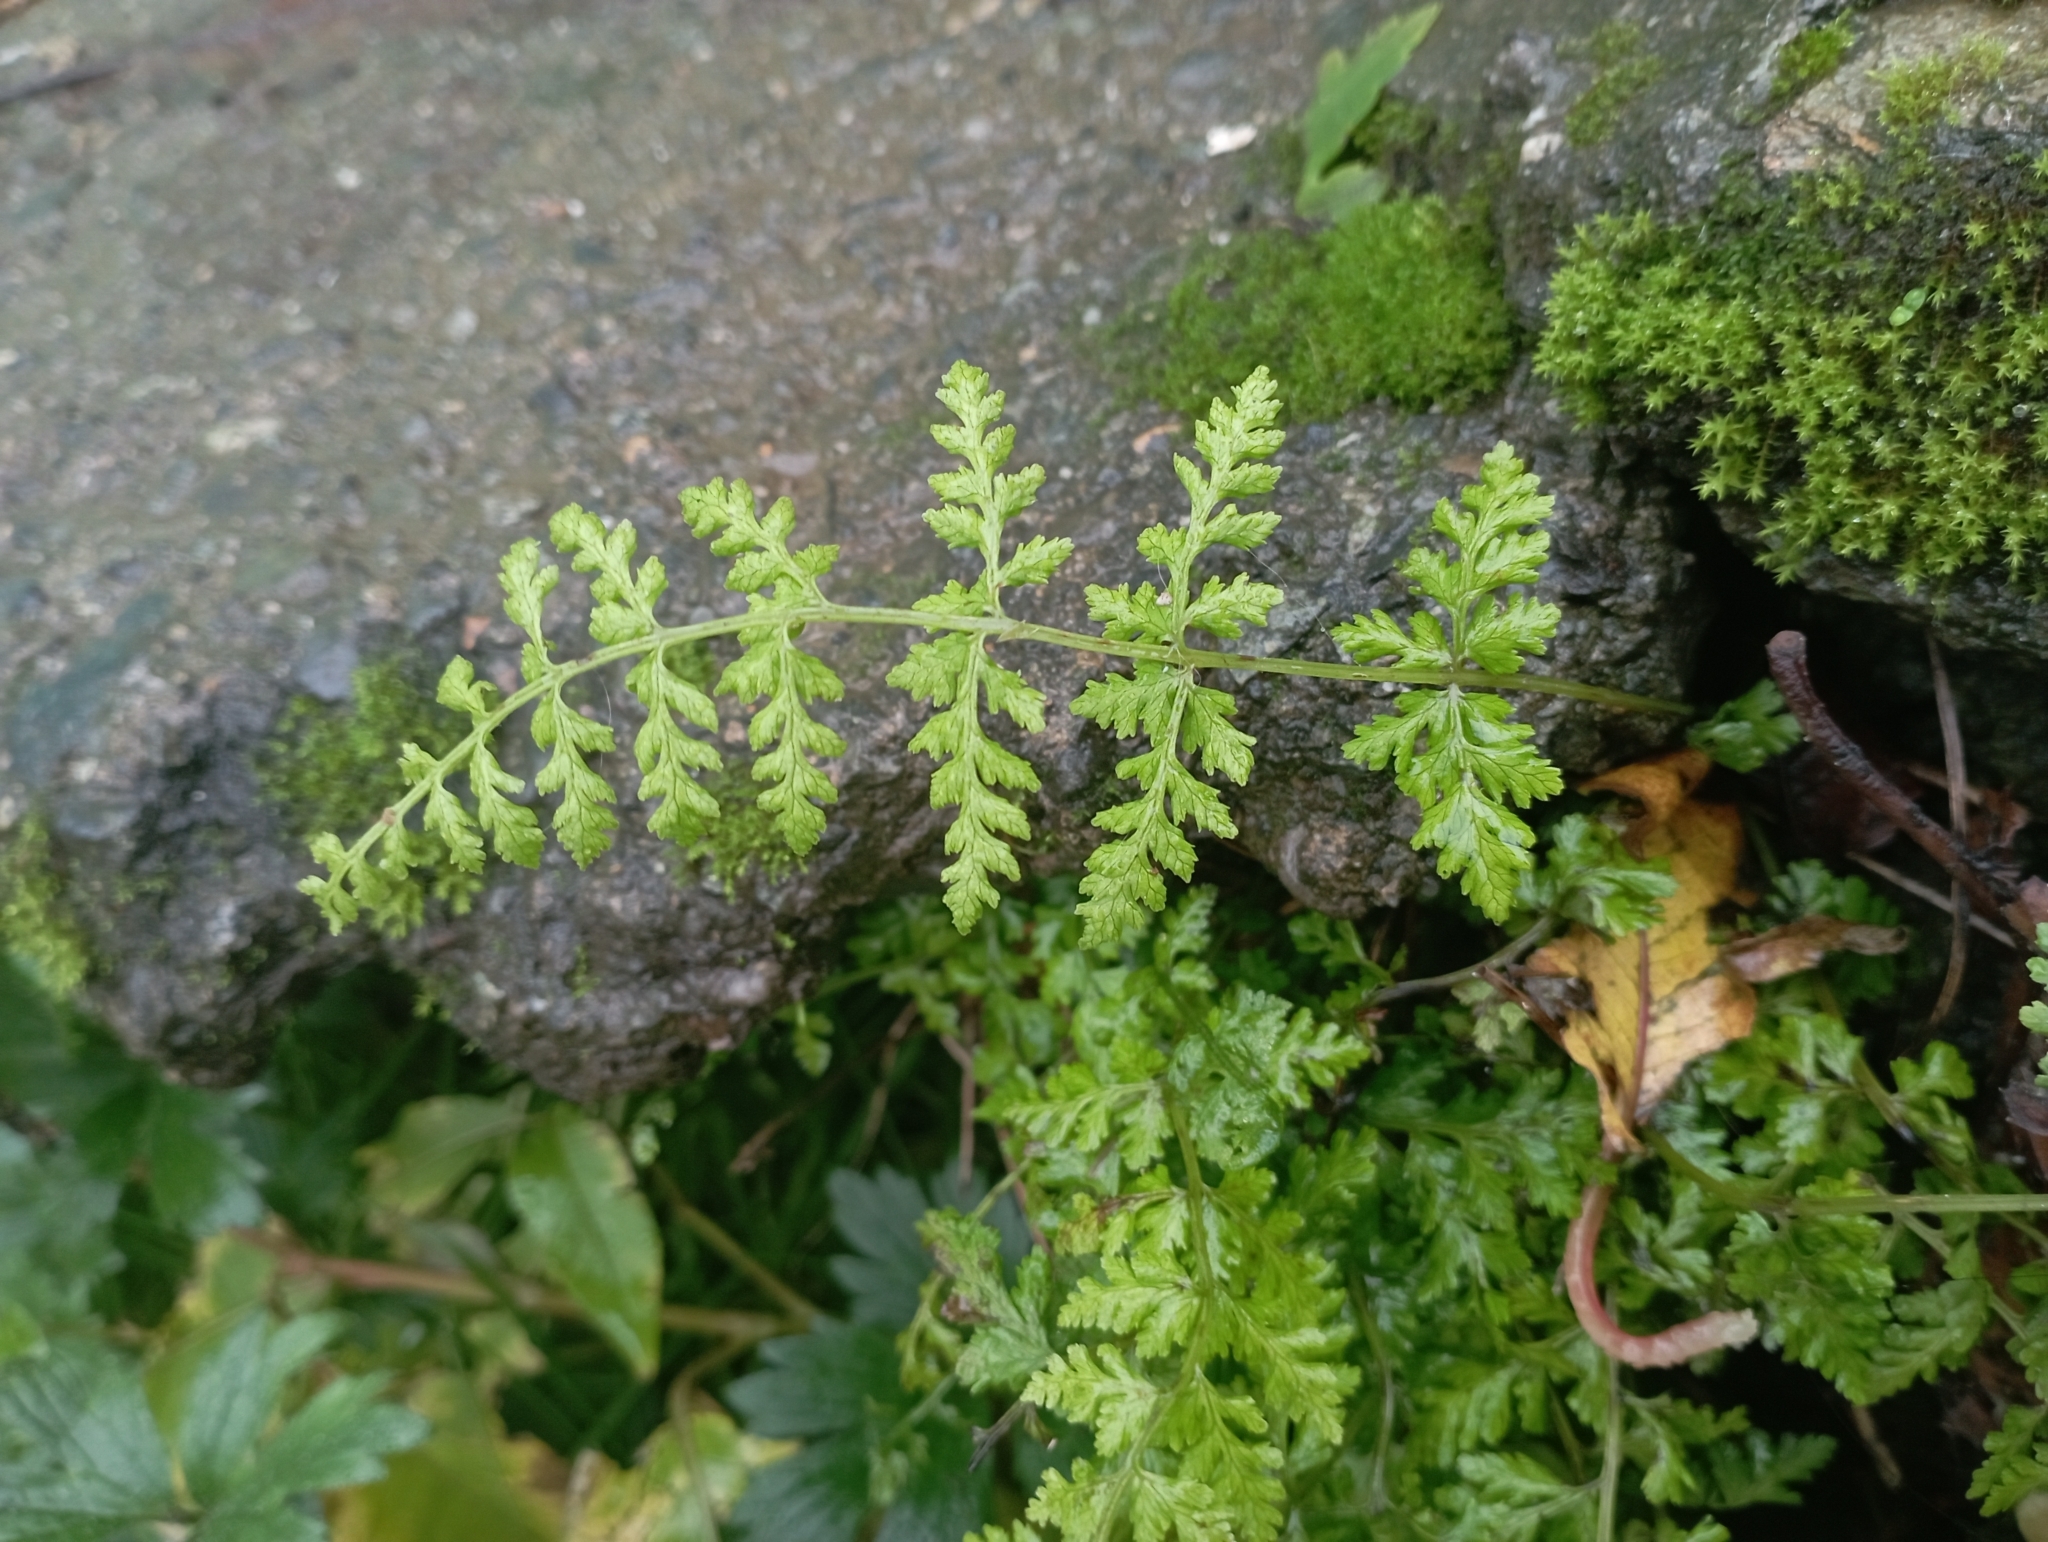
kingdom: Plantae
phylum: Tracheophyta
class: Polypodiopsida
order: Polypodiales
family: Cystopteridaceae
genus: Cystopteris
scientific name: Cystopteris
